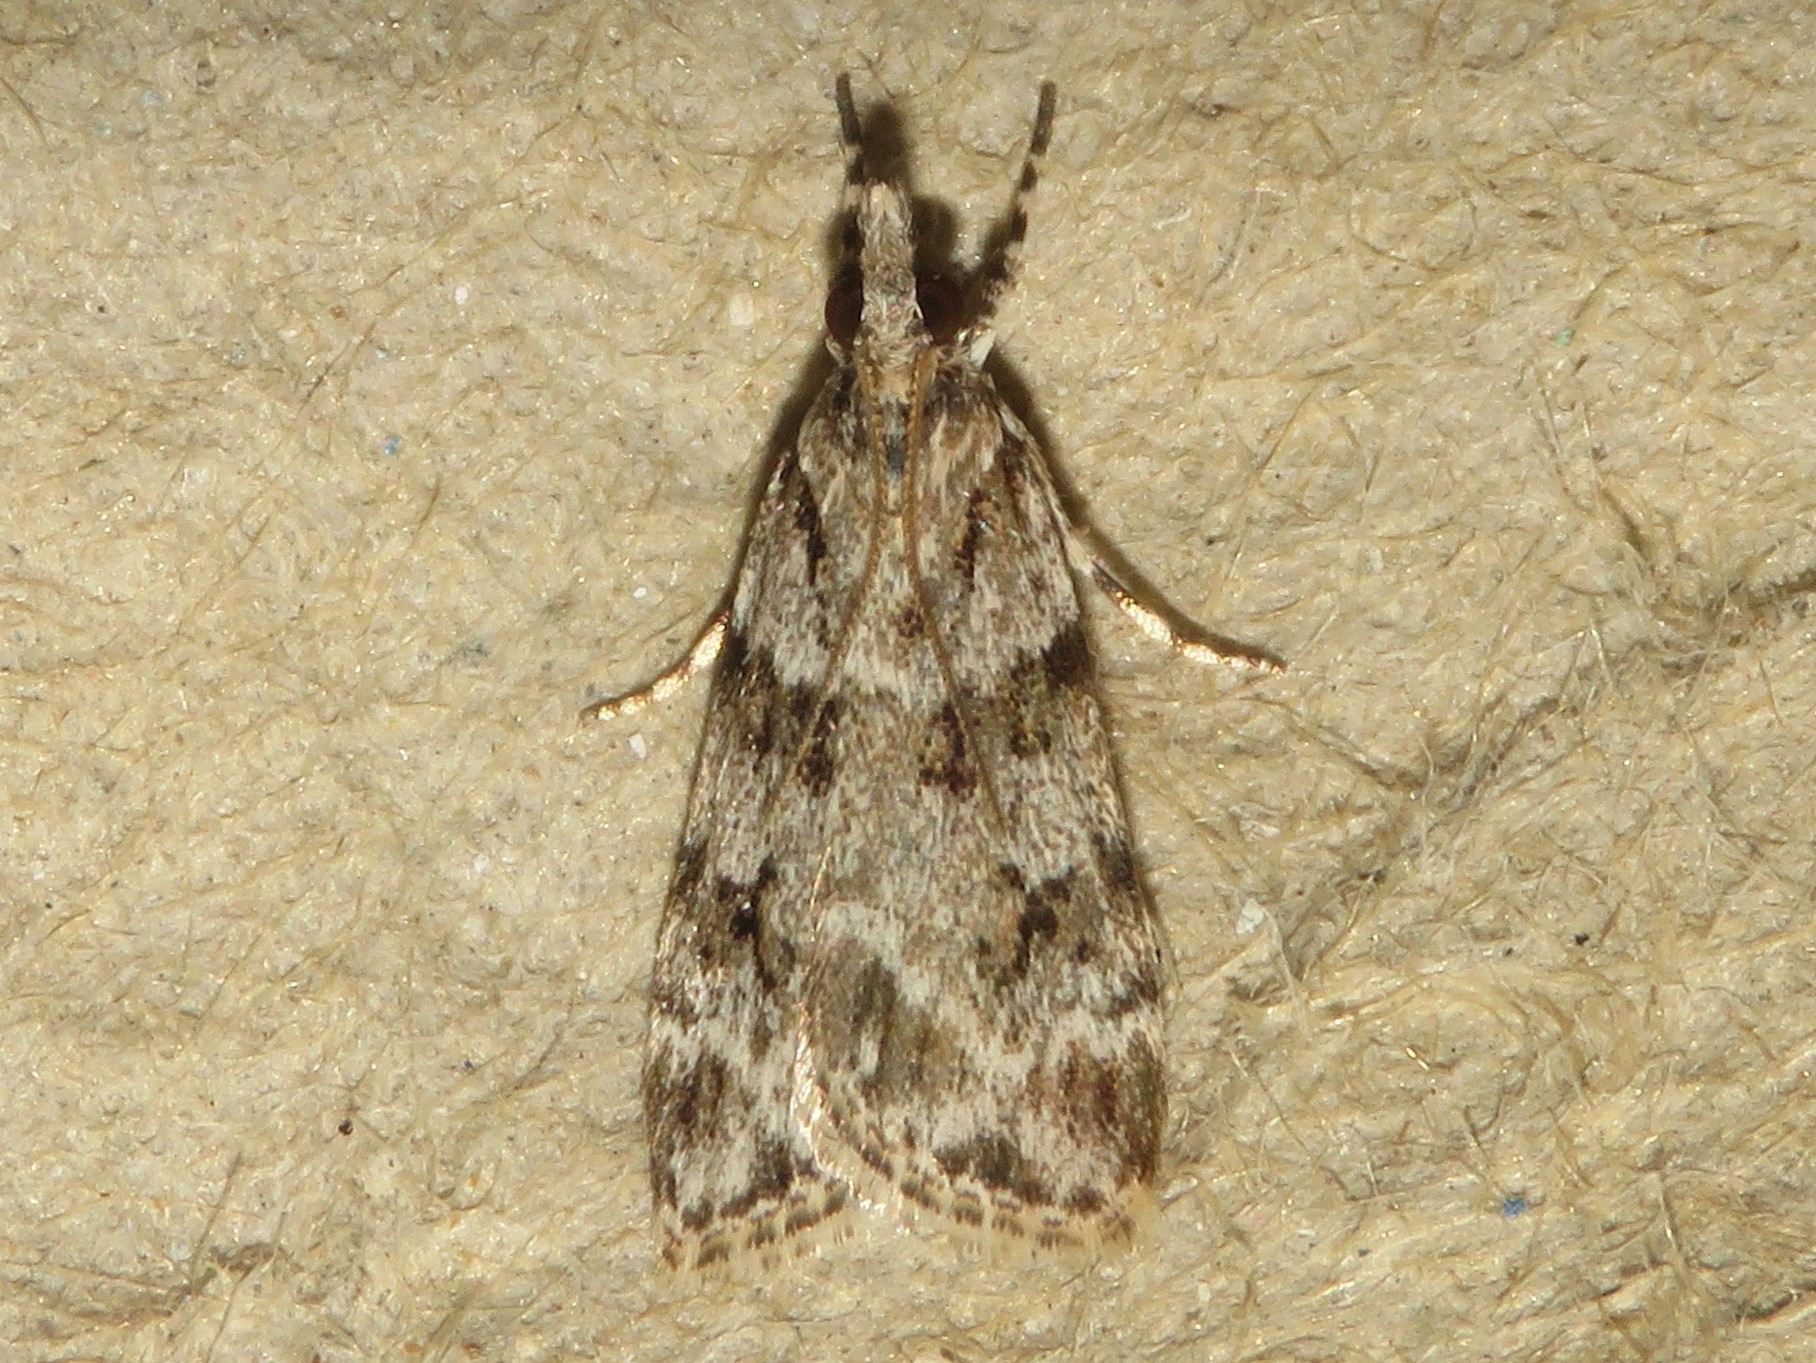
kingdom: Animalia
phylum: Arthropoda
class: Insecta
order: Lepidoptera
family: Crambidae
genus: Scoparia
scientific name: Scoparia biplagialis
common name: Double-striped scoparia moth
